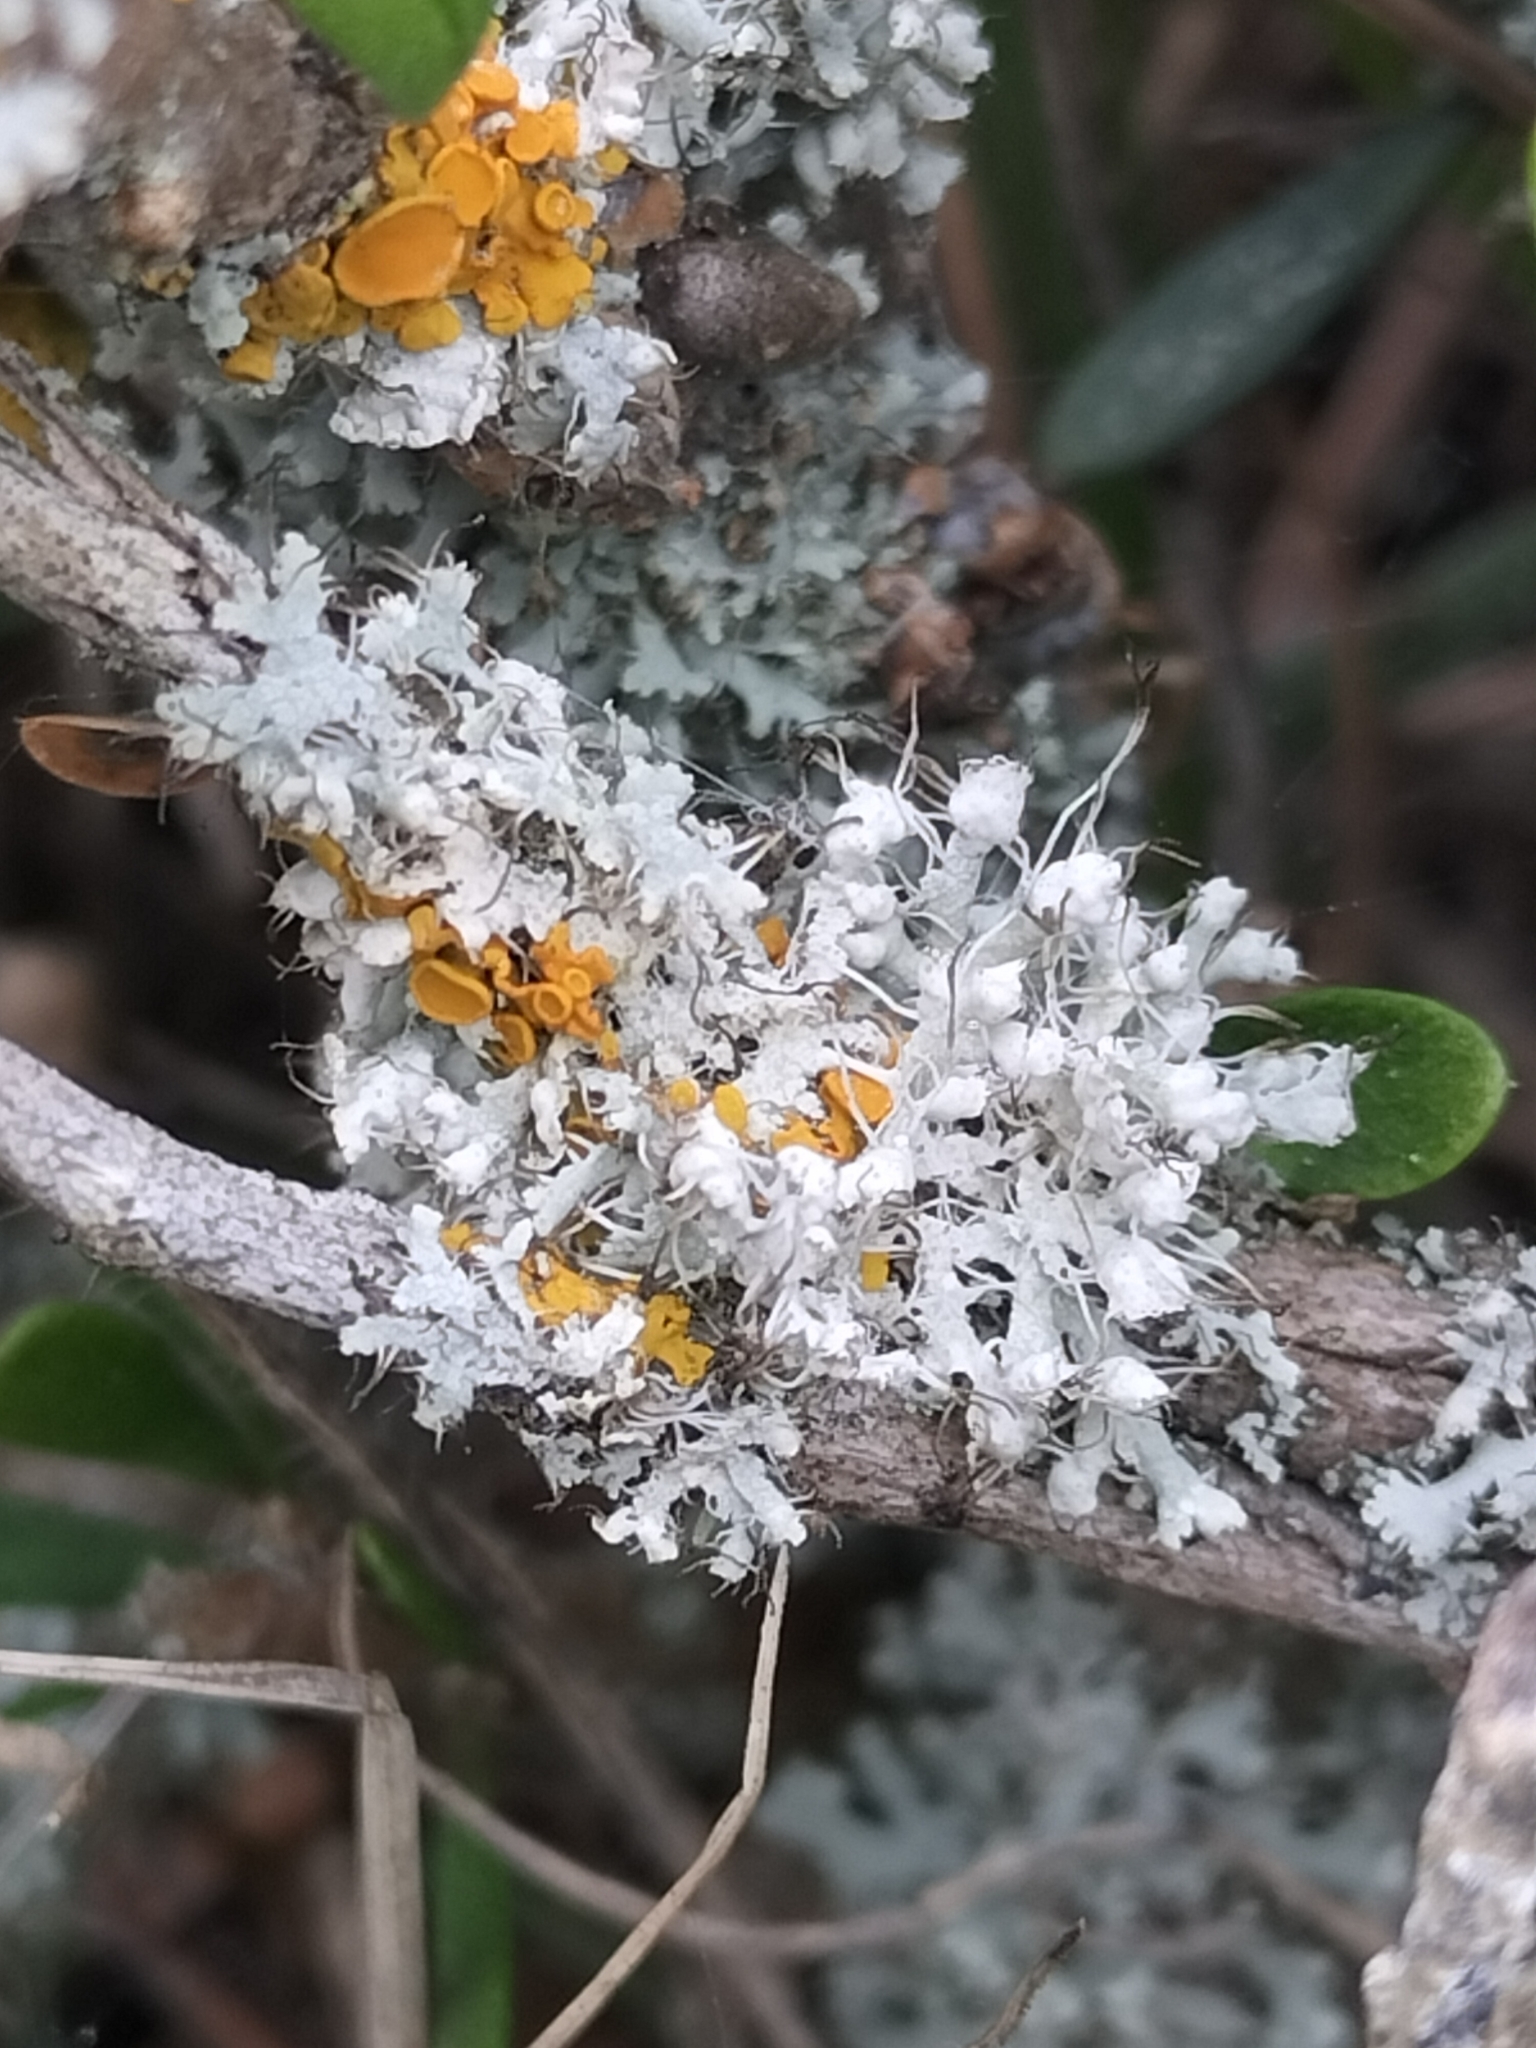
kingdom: Fungi
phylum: Ascomycota
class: Lecanoromycetes
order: Caliciales
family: Physciaceae
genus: Physcia
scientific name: Physcia adscendens
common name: Hooded rosette lichen
